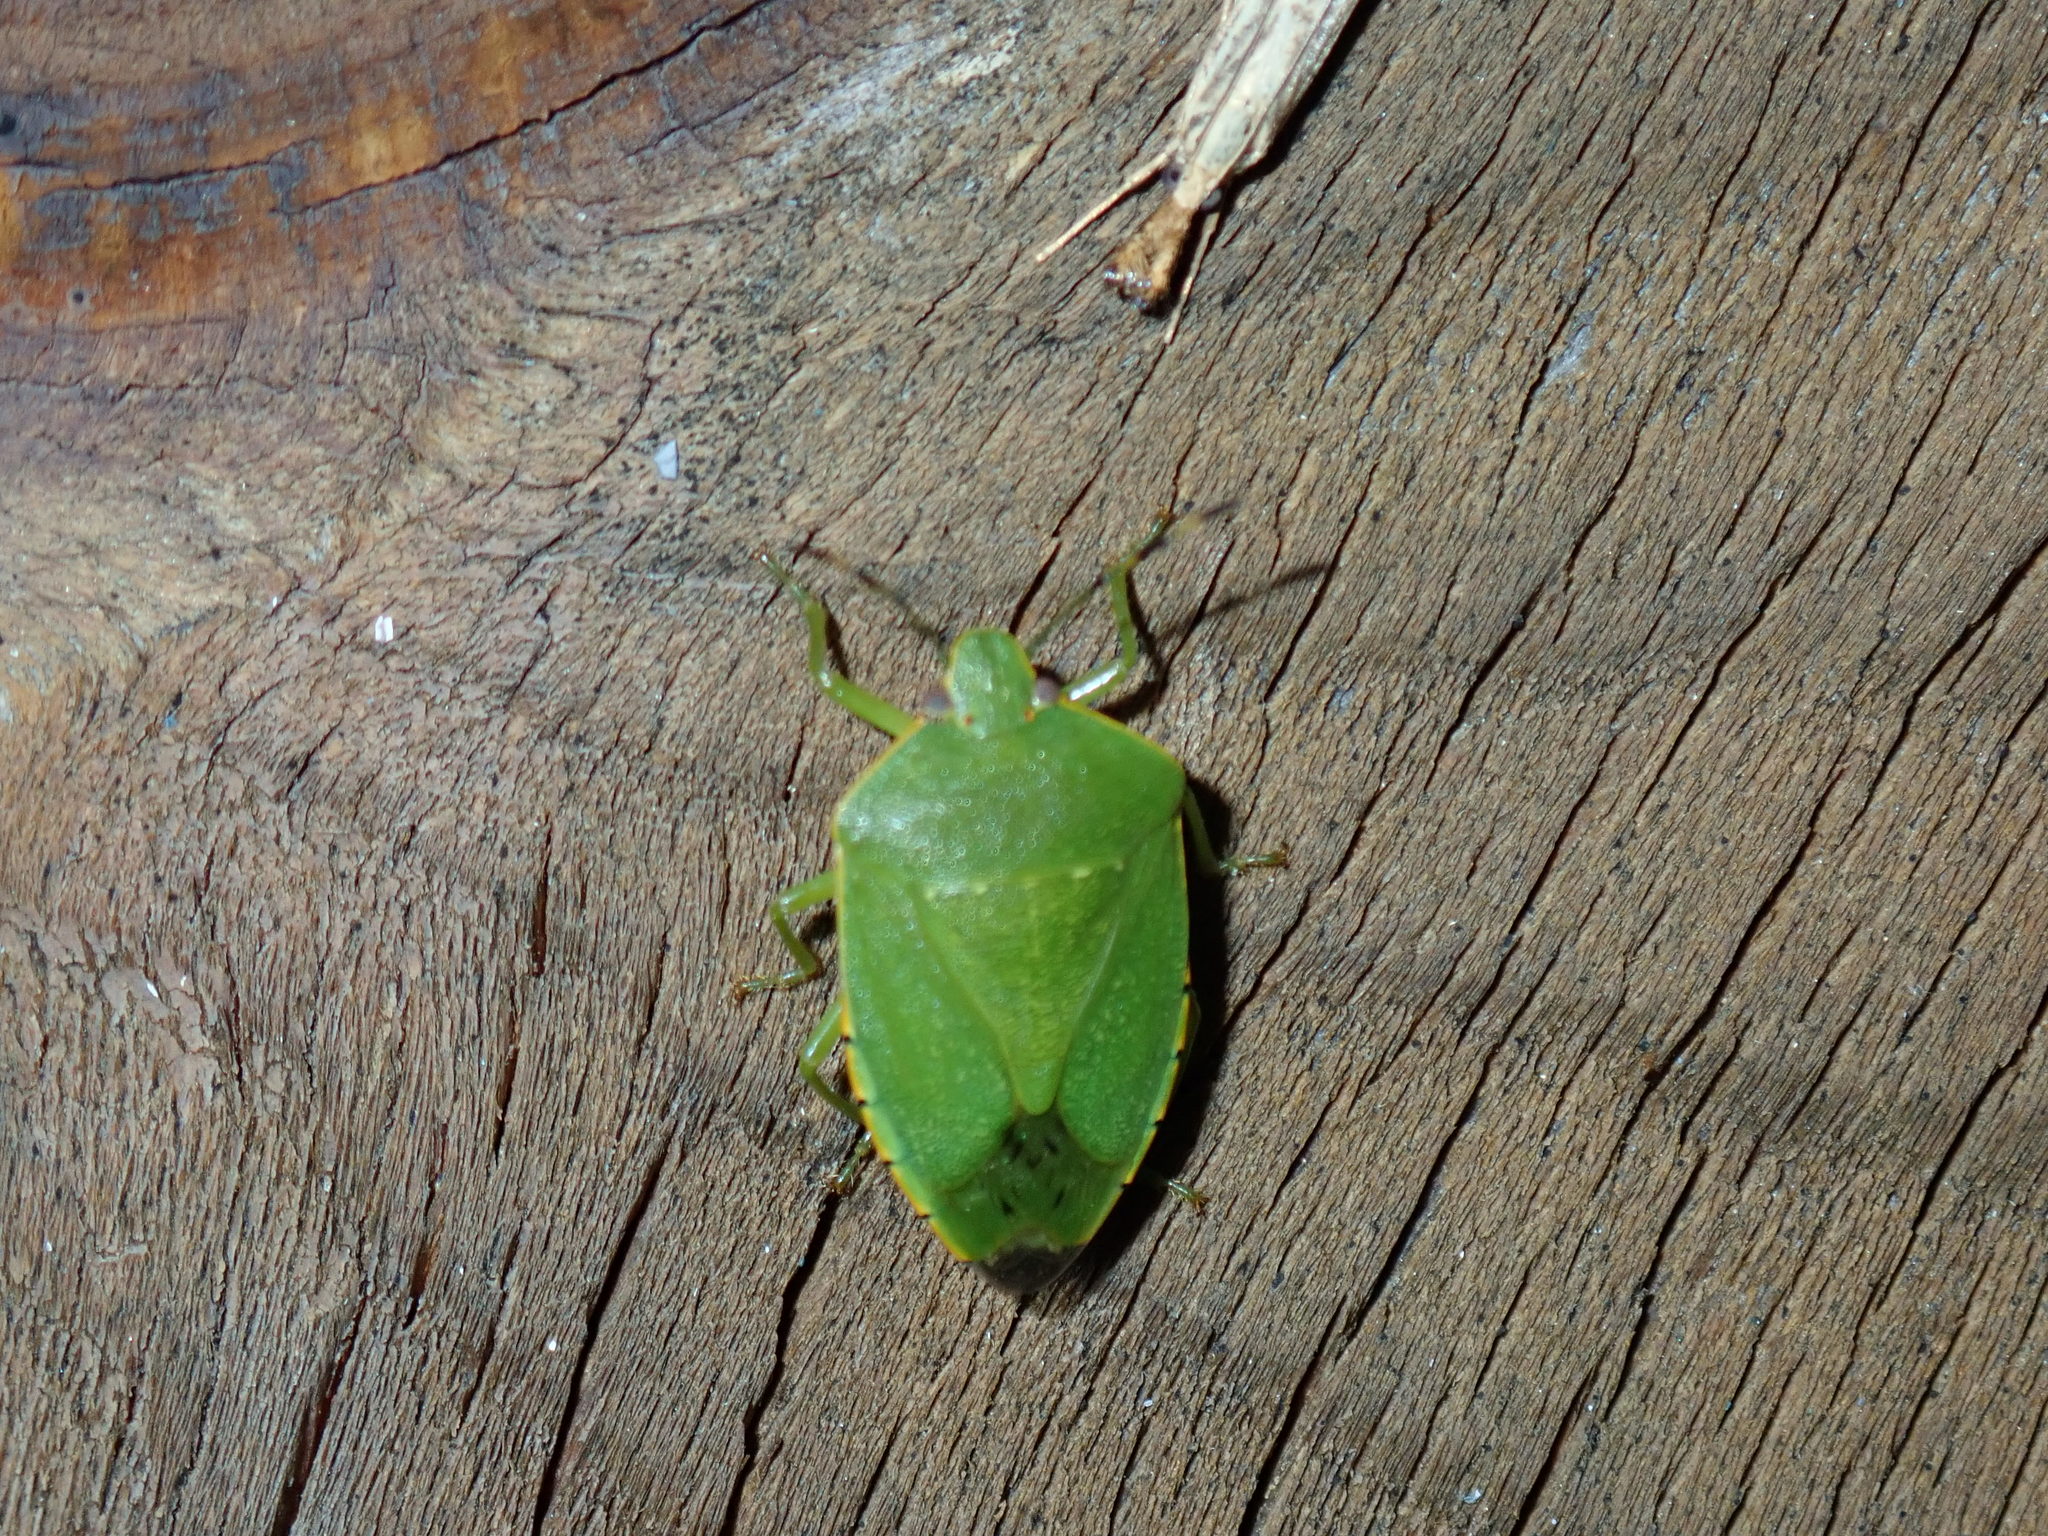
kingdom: Animalia
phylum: Arthropoda
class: Insecta
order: Hemiptera
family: Pentatomidae
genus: Chinavia
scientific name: Chinavia hilaris
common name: Green stink bug
